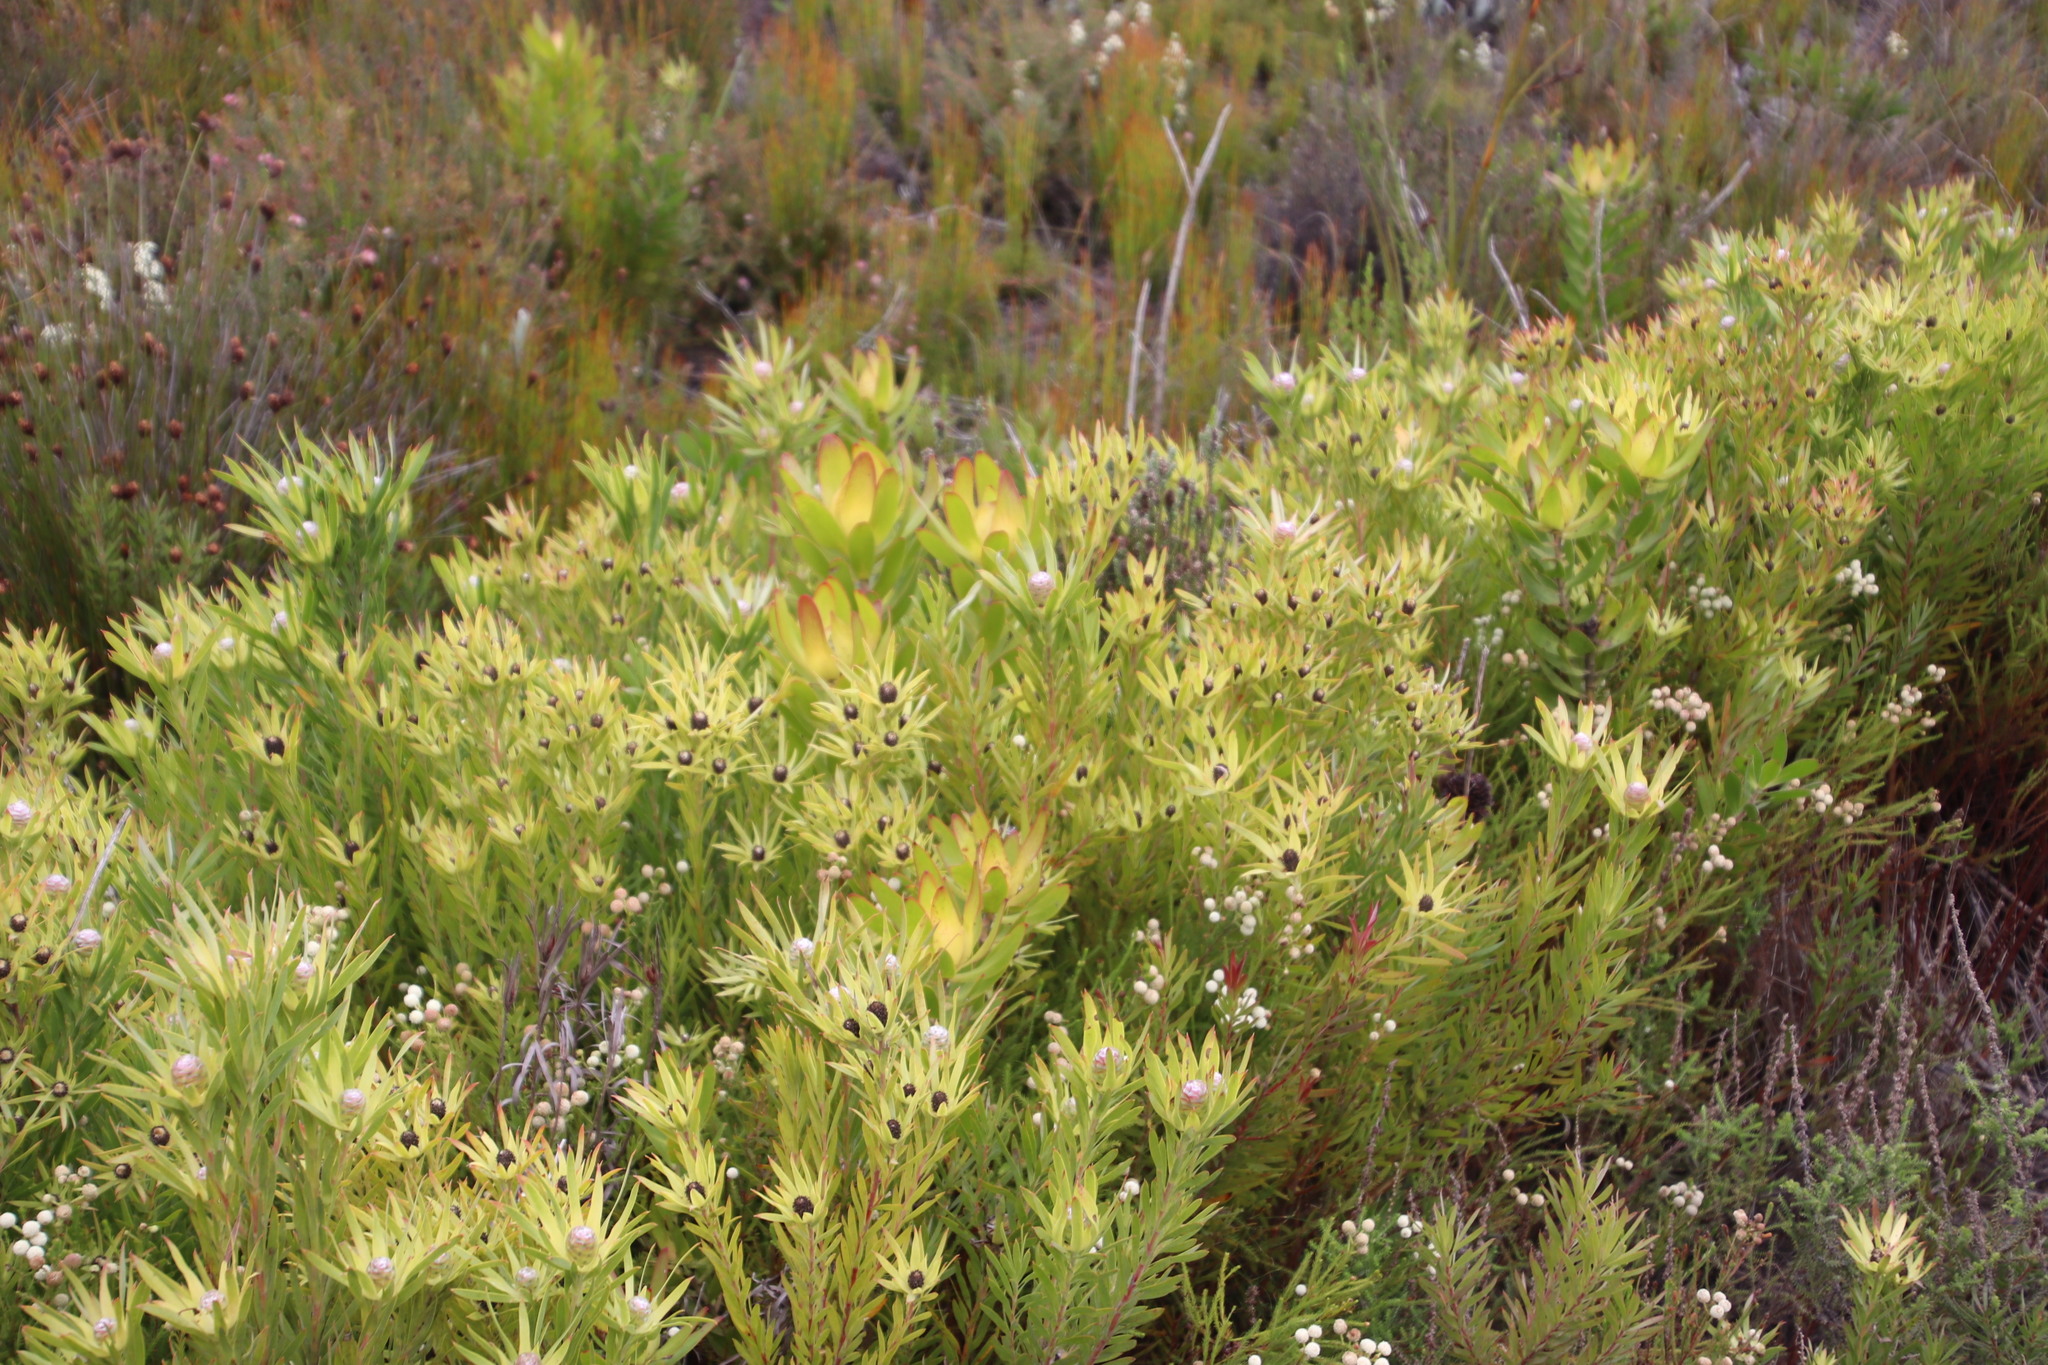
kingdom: Plantae
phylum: Tracheophyta
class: Magnoliopsida
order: Proteales
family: Proteaceae
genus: Leucadendron
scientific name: Leucadendron xanthoconus
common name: Sickle-leaf conebush
